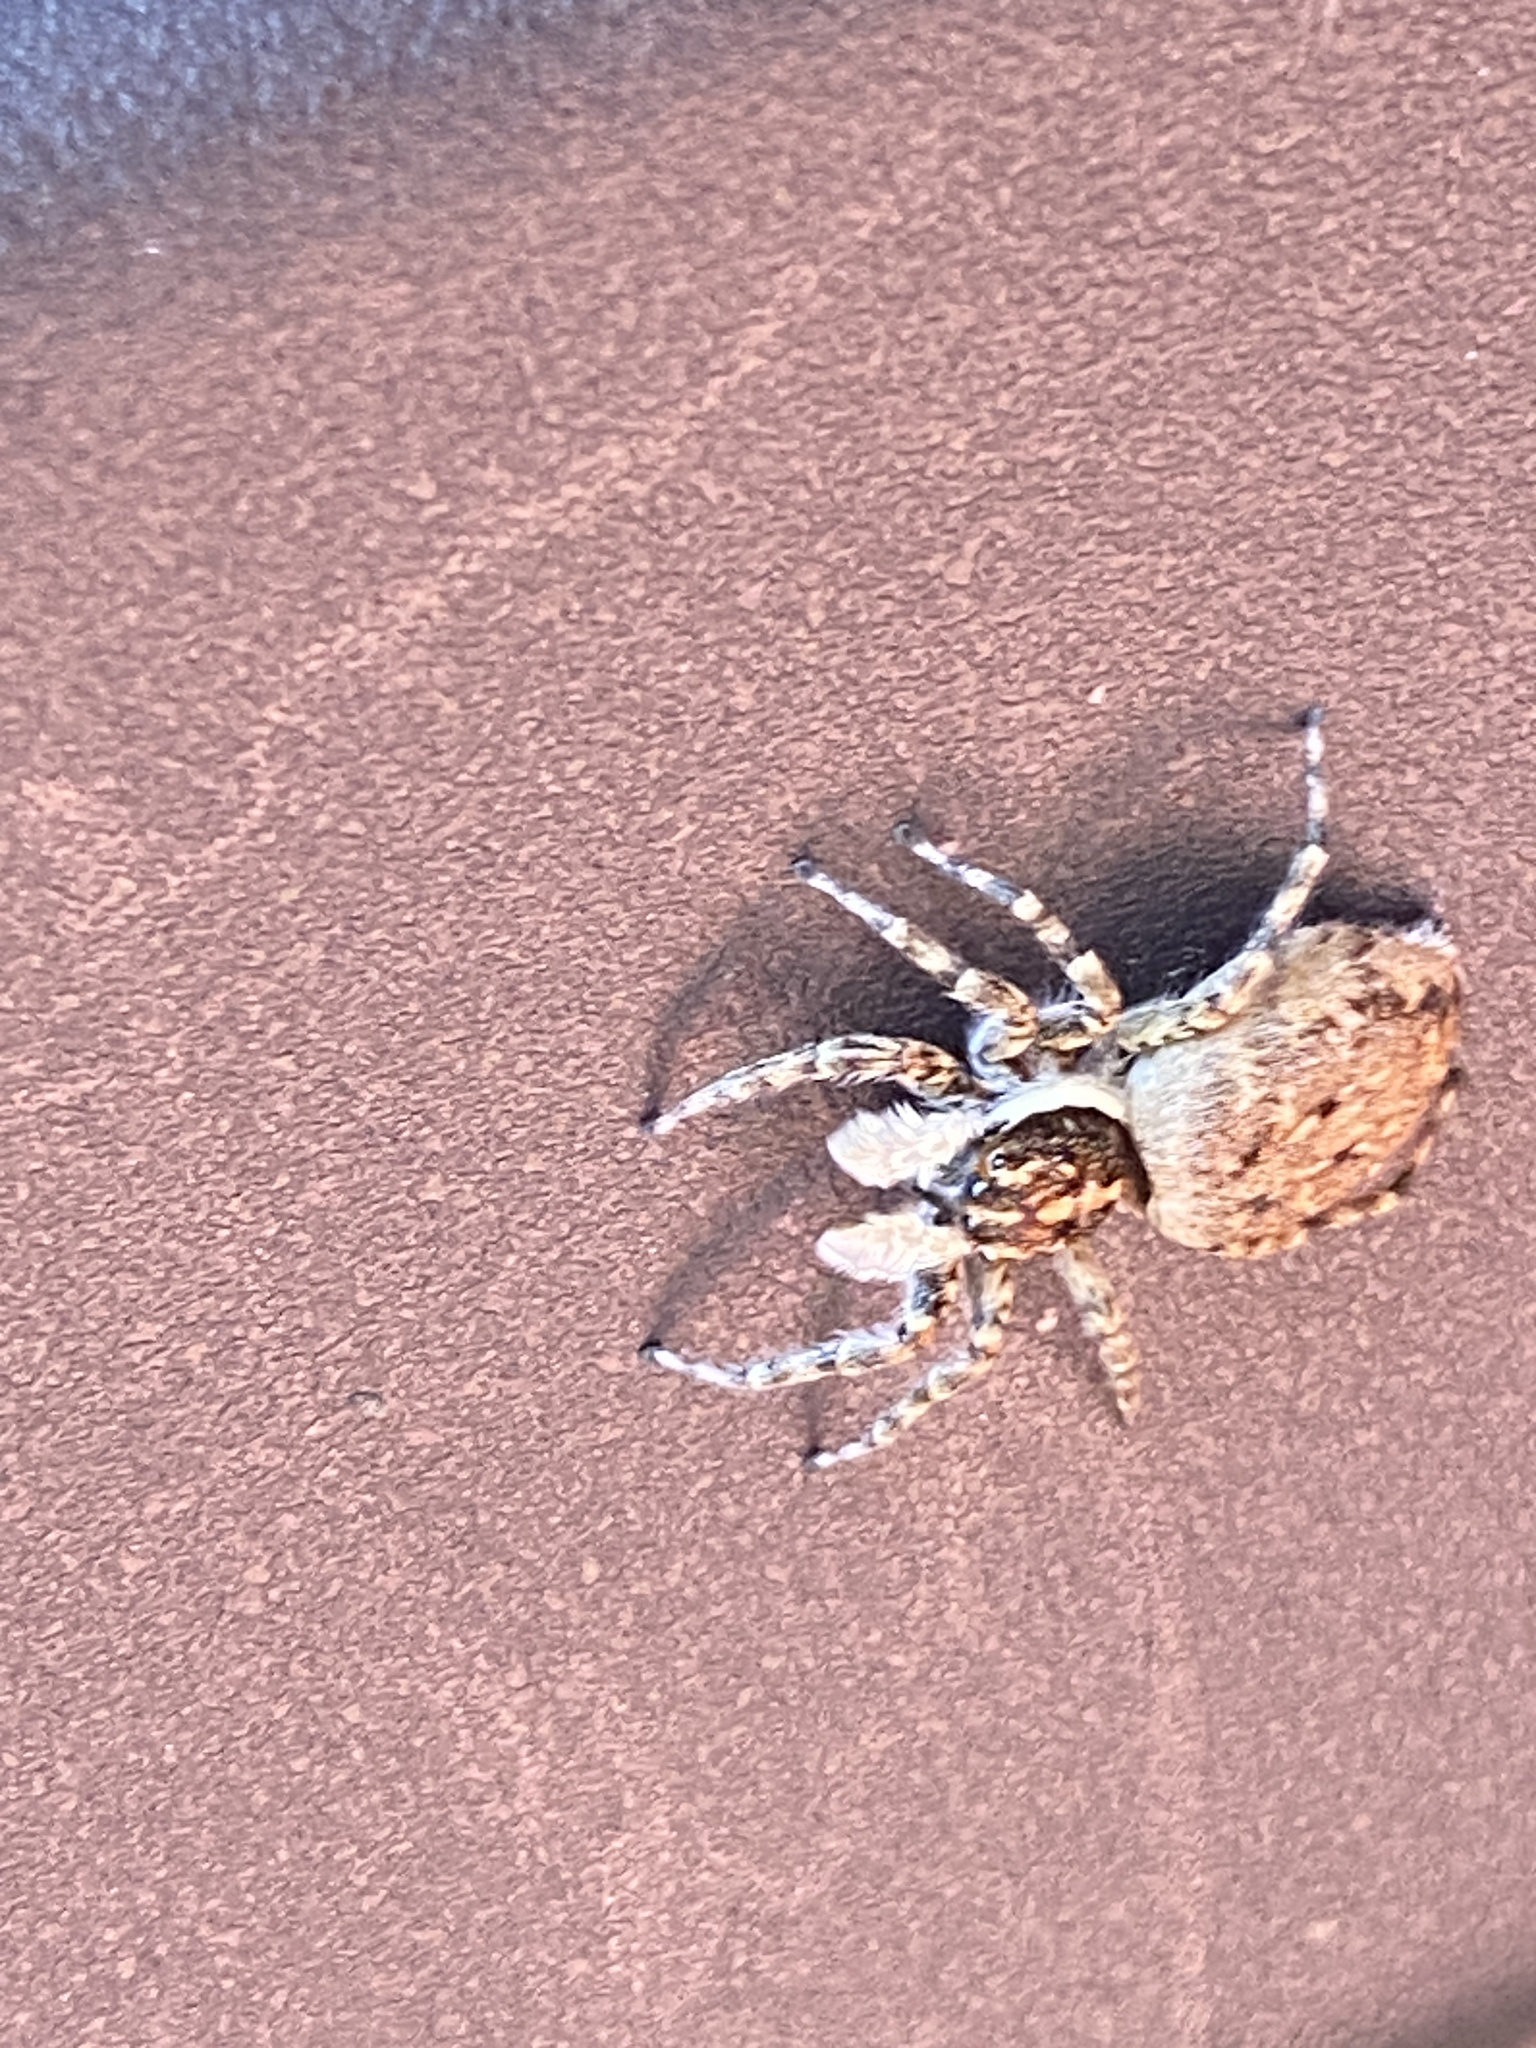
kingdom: Animalia
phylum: Arthropoda
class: Arachnida
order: Araneae
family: Salticidae
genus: Menemerus
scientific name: Menemerus semilimbatus
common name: Jumping spider
